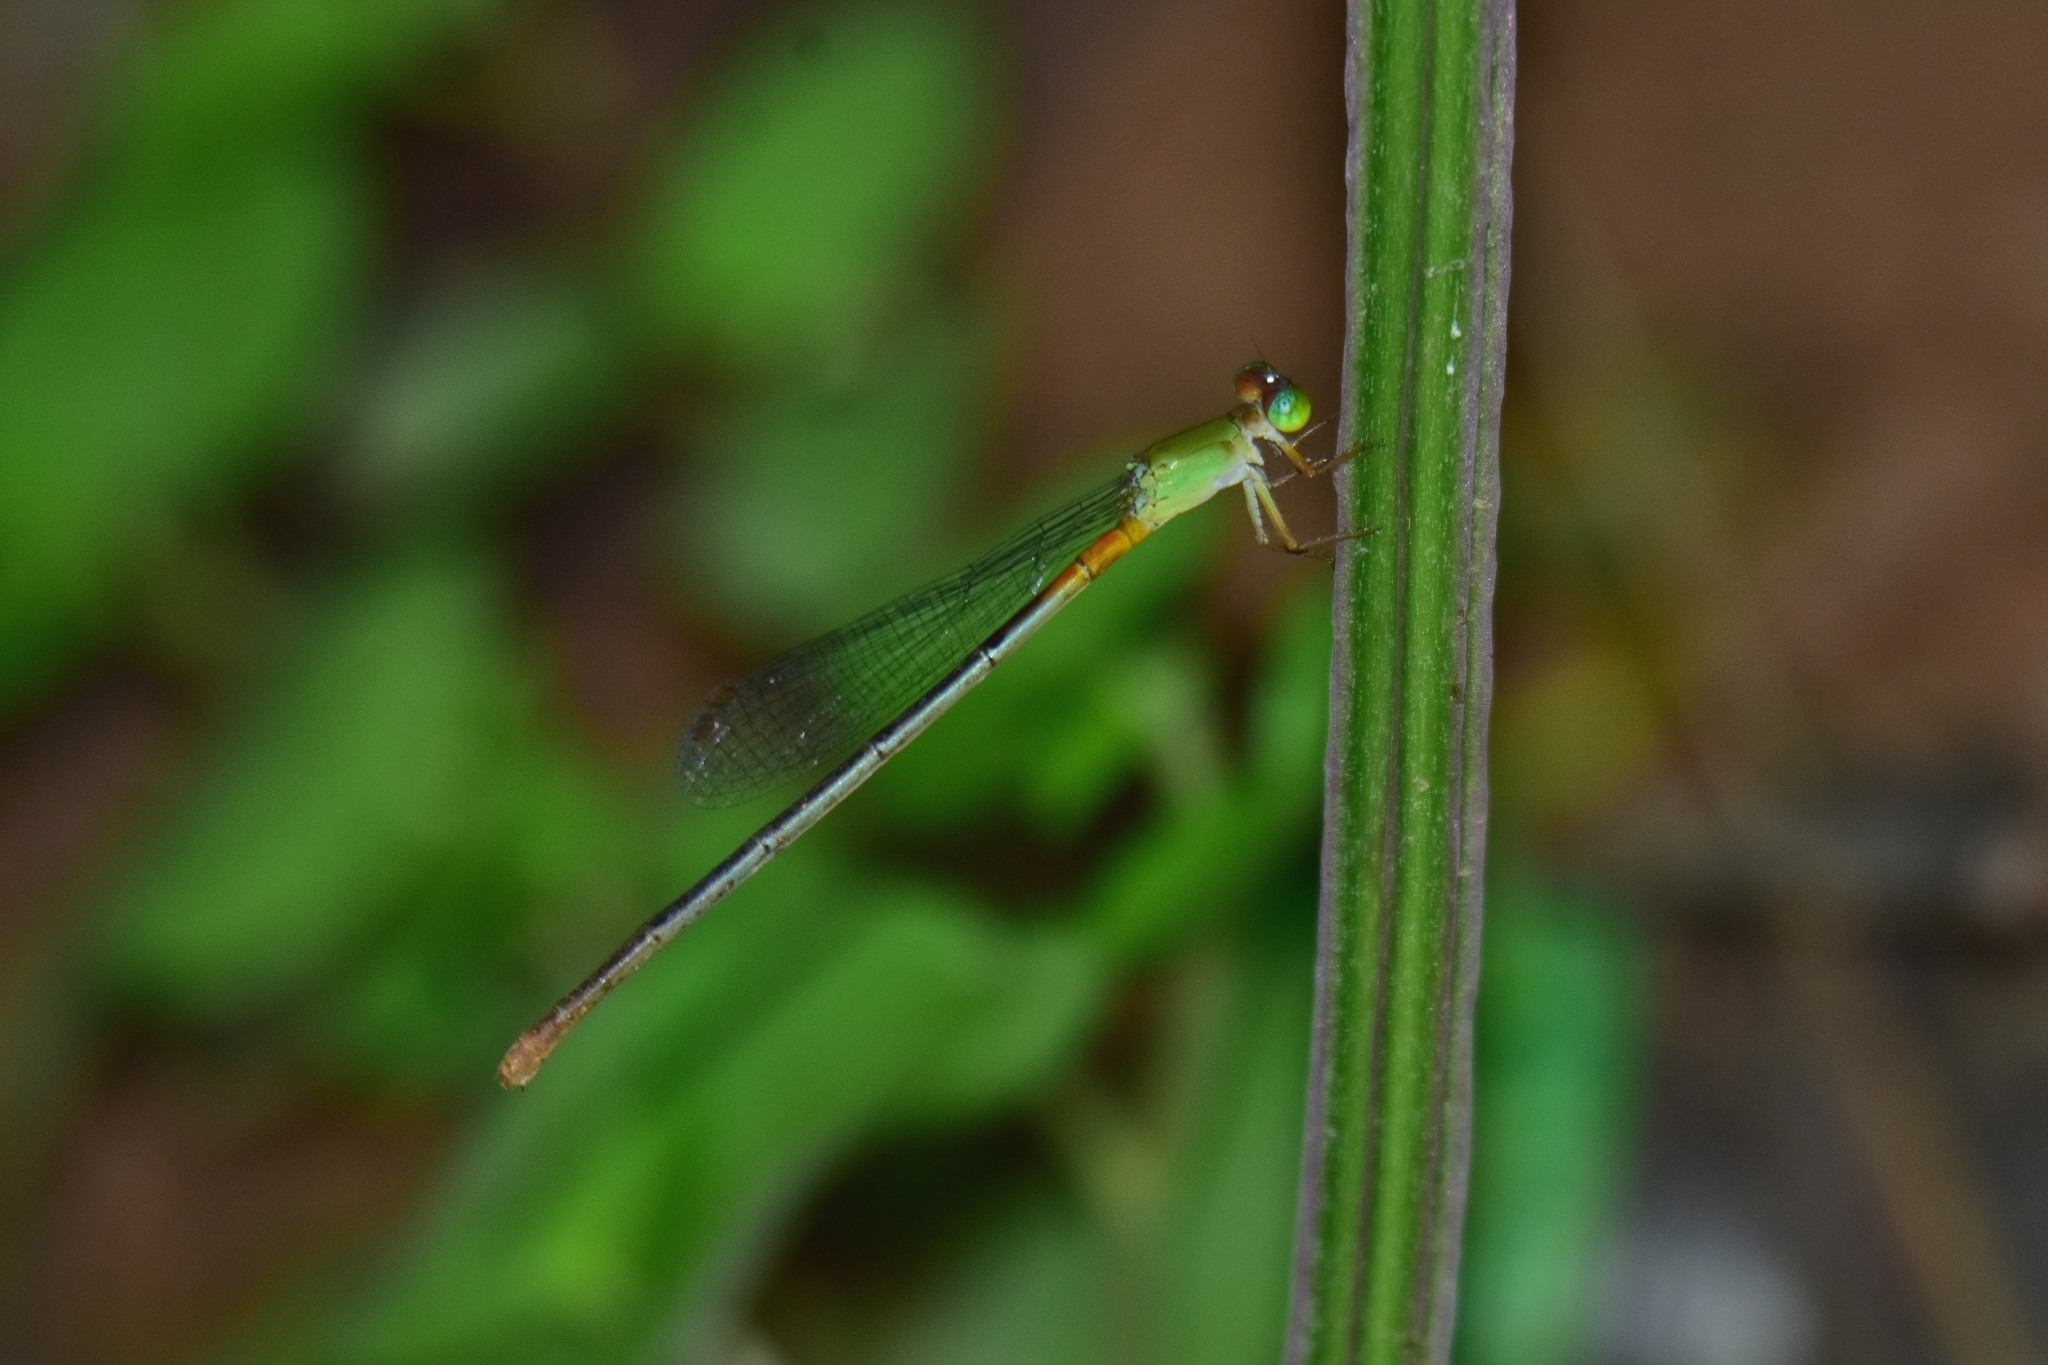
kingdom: Animalia
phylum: Arthropoda
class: Insecta
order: Odonata
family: Coenagrionidae
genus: Ceriagrion
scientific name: Ceriagrion cerinorubellum
